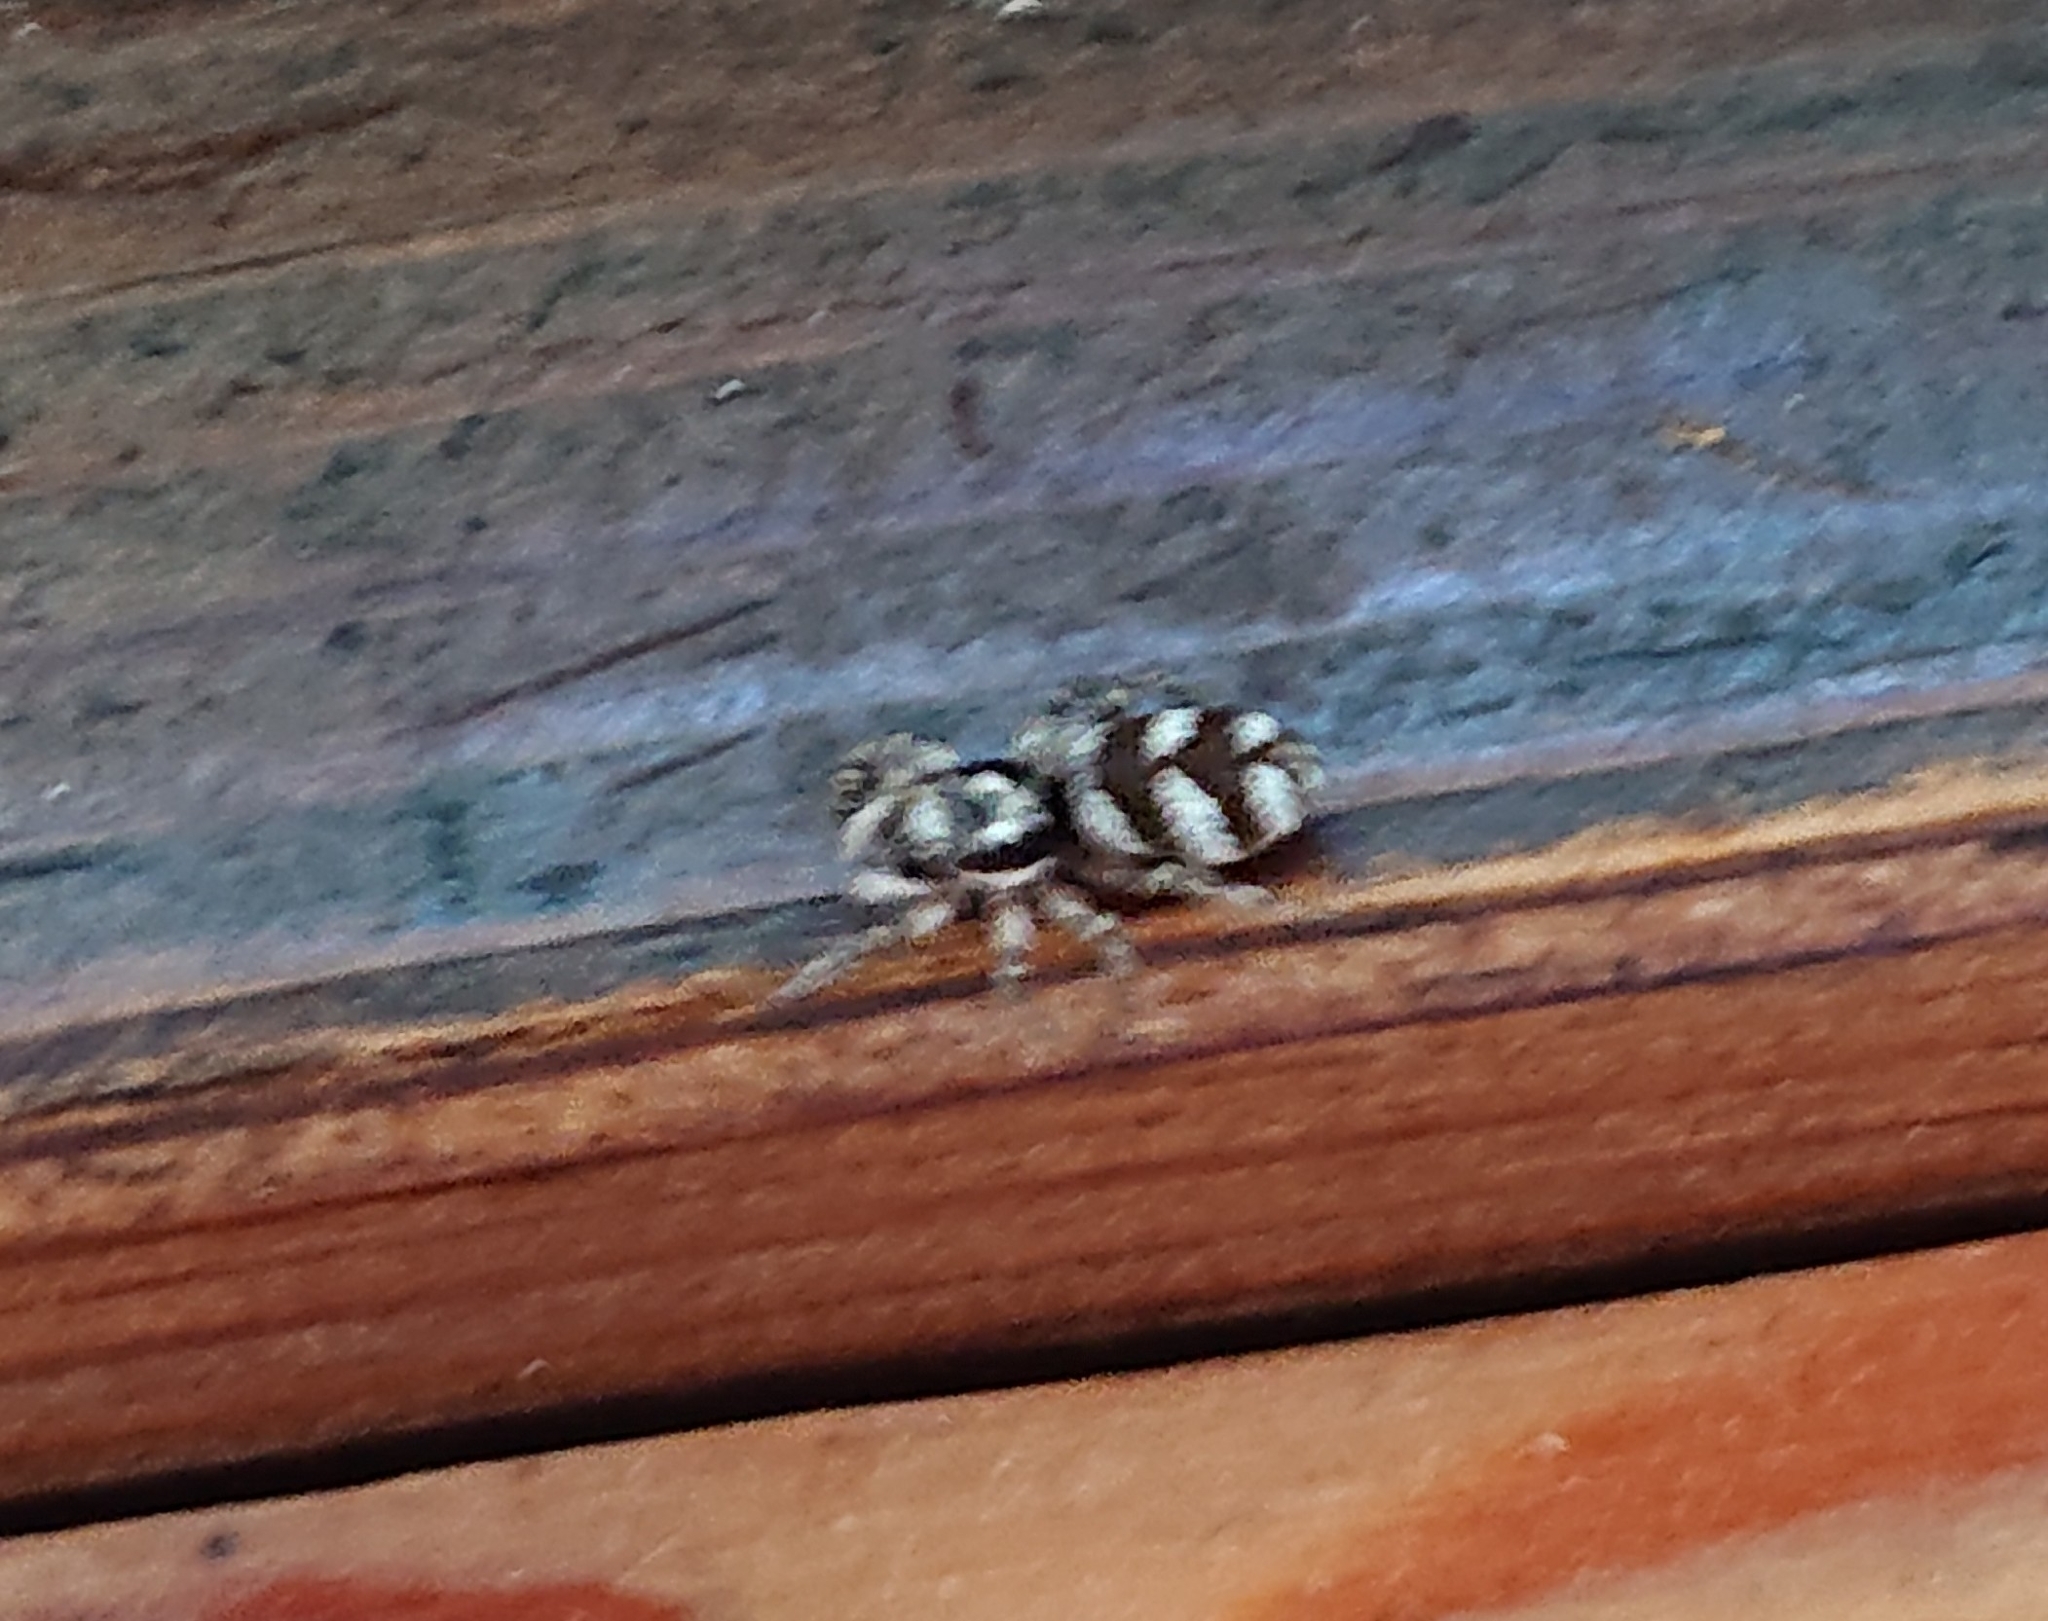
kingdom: Animalia
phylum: Arthropoda
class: Arachnida
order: Araneae
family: Salticidae
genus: Salticus
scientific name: Salticus scenicus
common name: Zebra jumper
